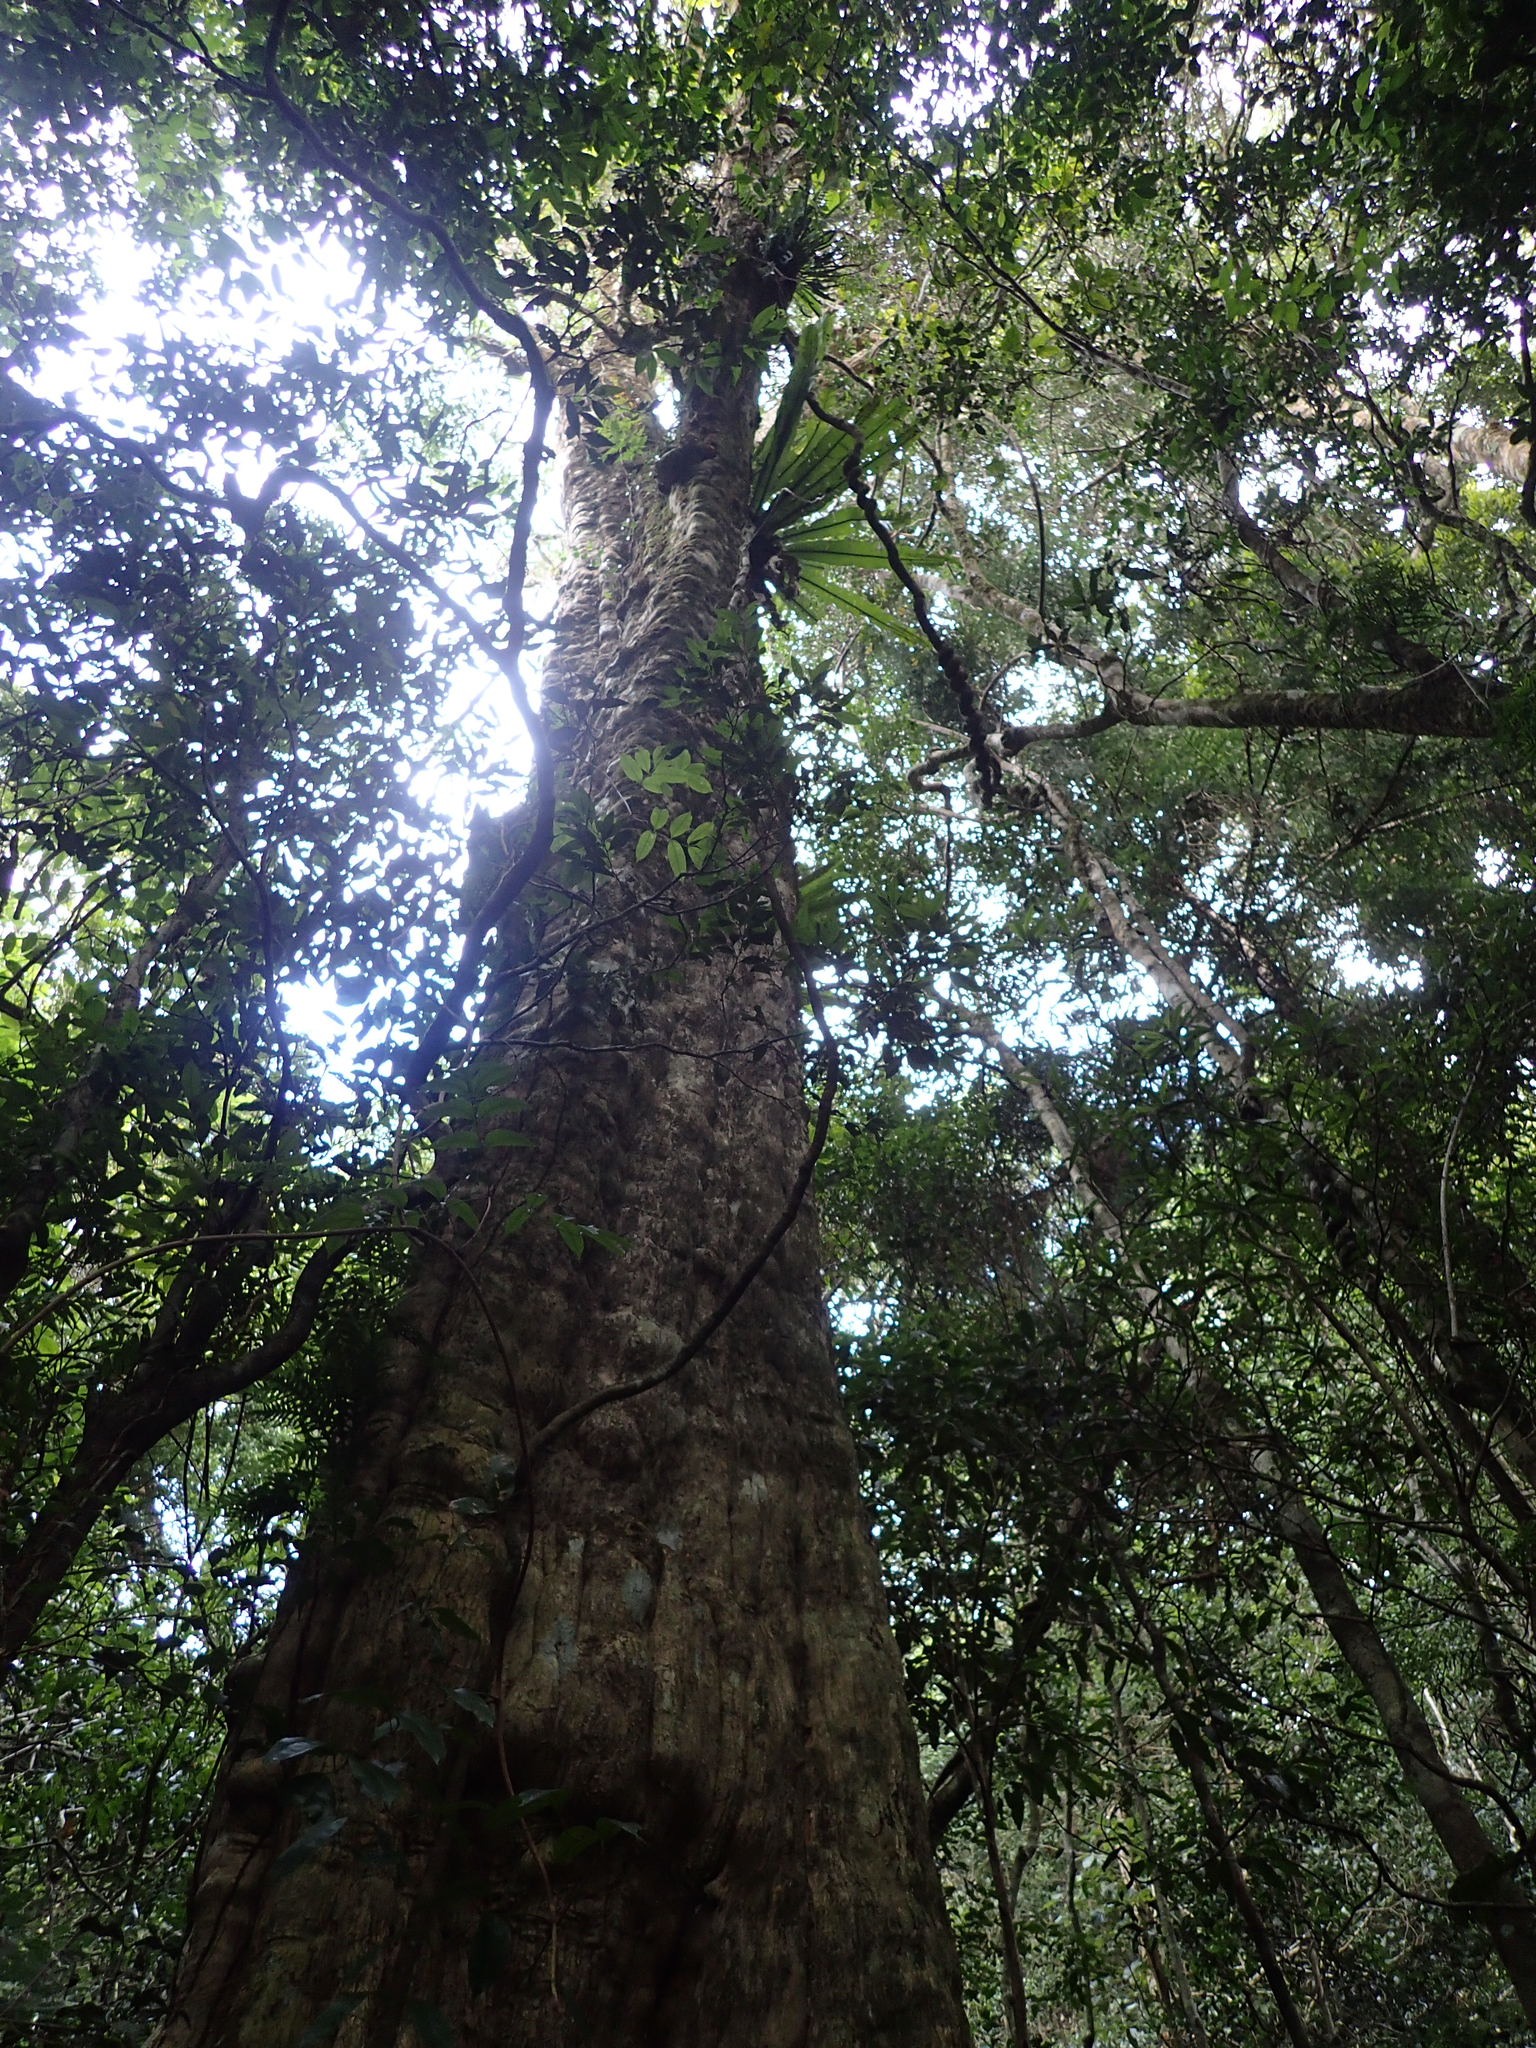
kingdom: Plantae
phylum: Tracheophyta
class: Magnoliopsida
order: Lamiales
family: Lamiaceae
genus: Vitex
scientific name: Vitex lignum-vitae
